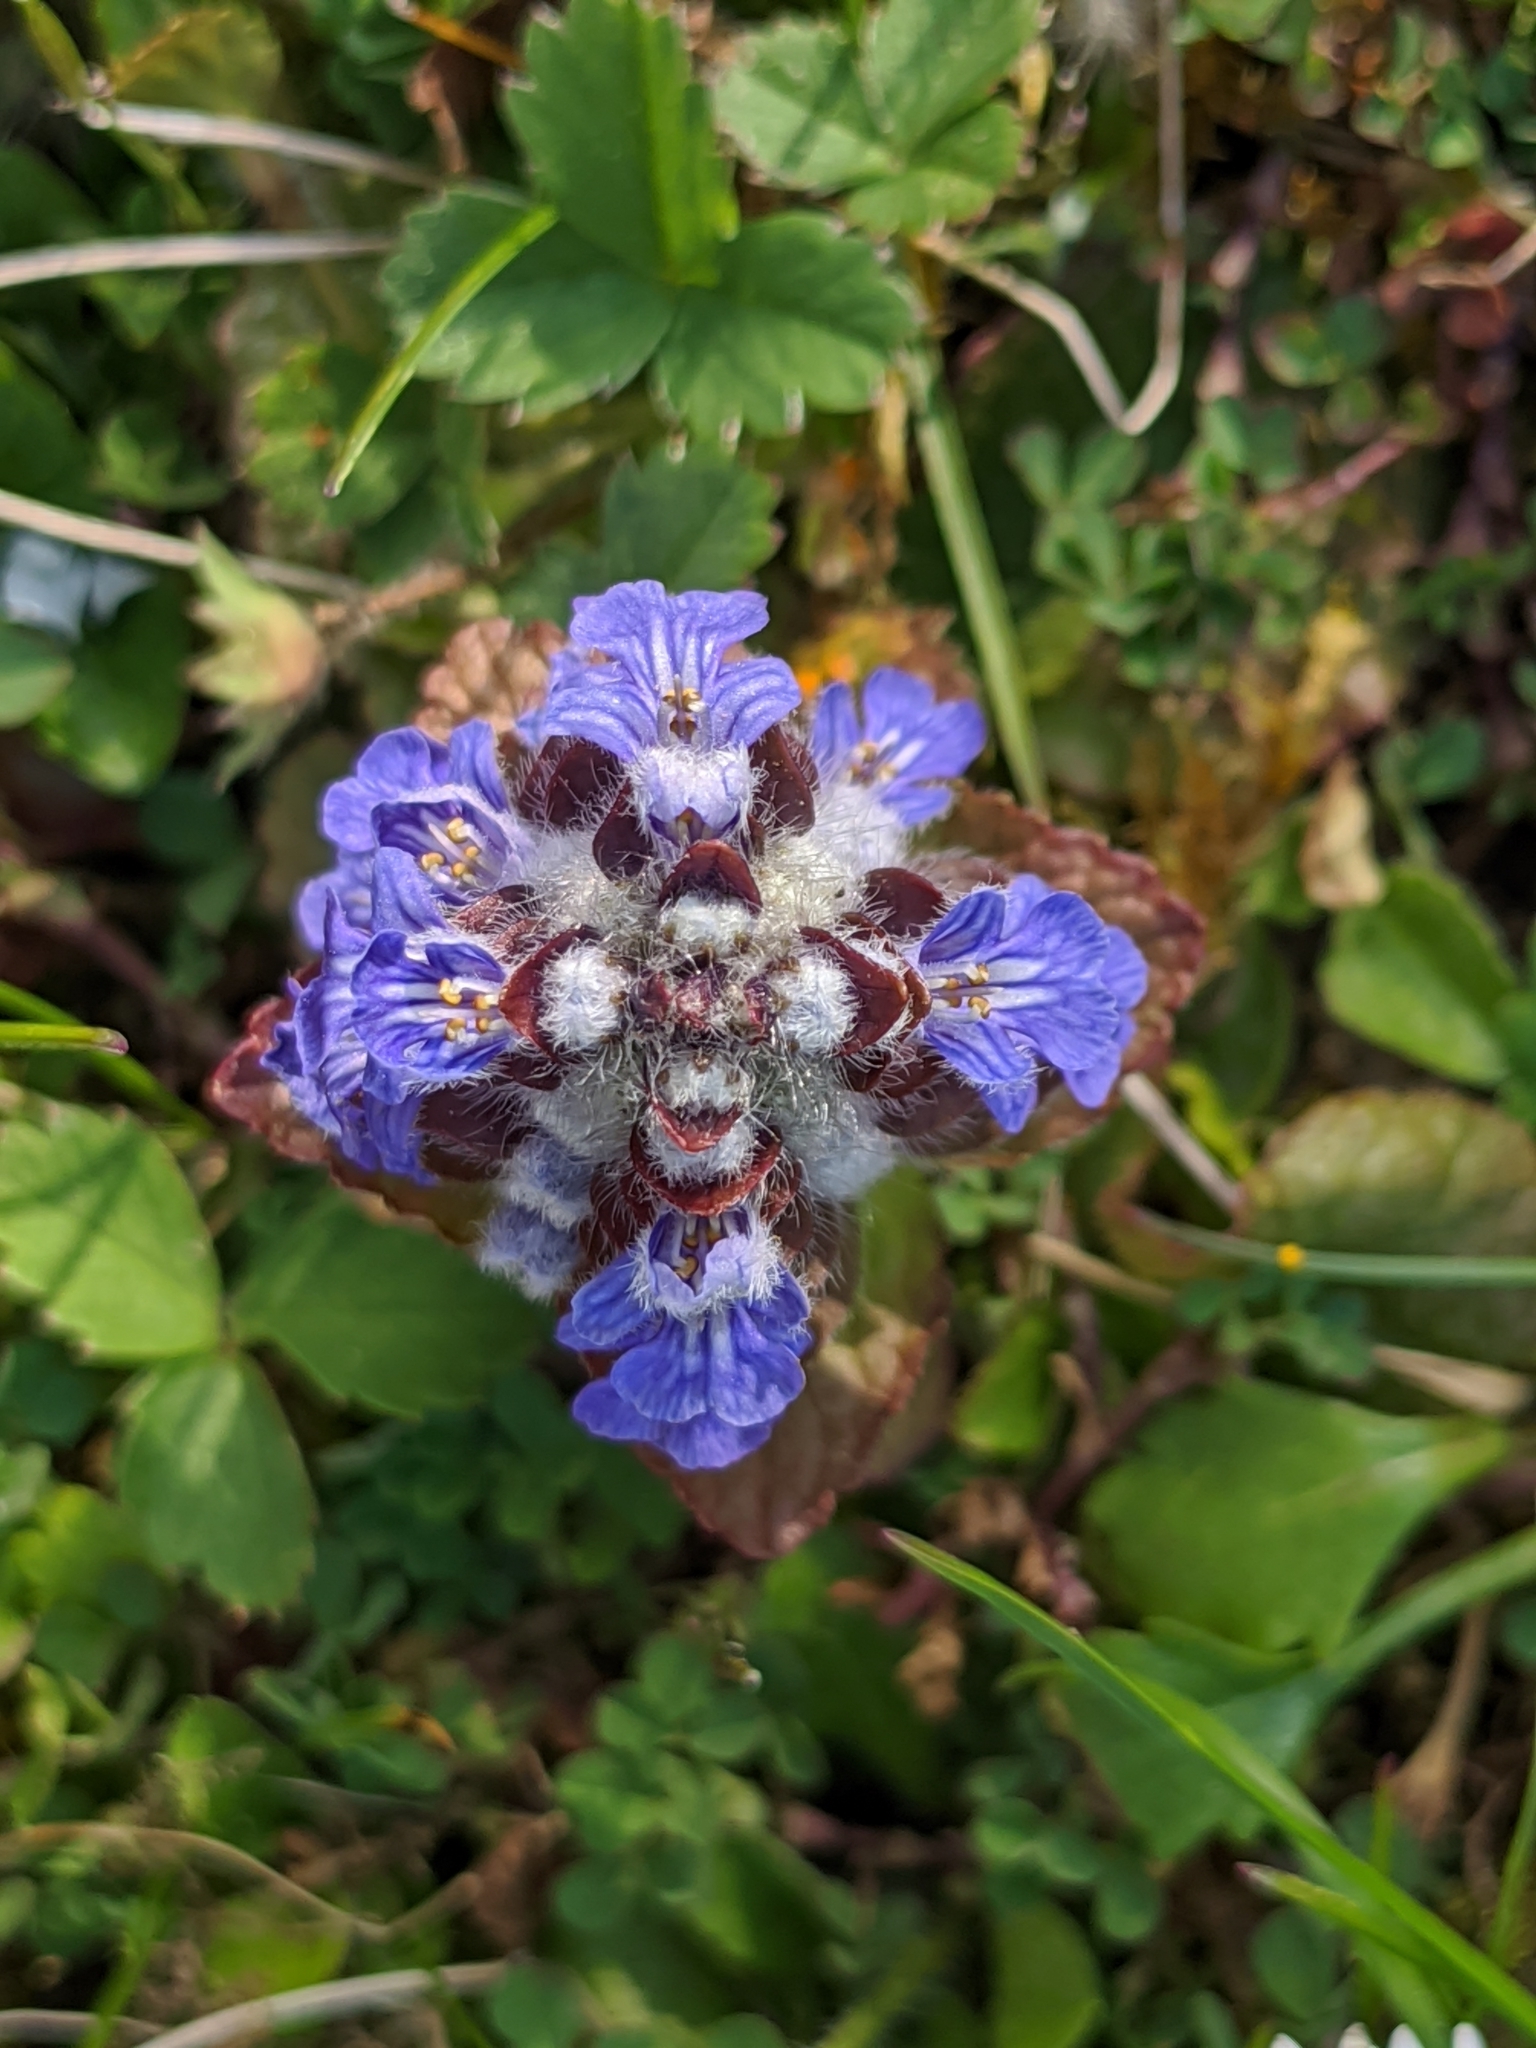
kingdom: Plantae
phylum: Tracheophyta
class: Magnoliopsida
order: Lamiales
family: Lamiaceae
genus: Ajuga
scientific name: Ajuga reptans
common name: Bugle
